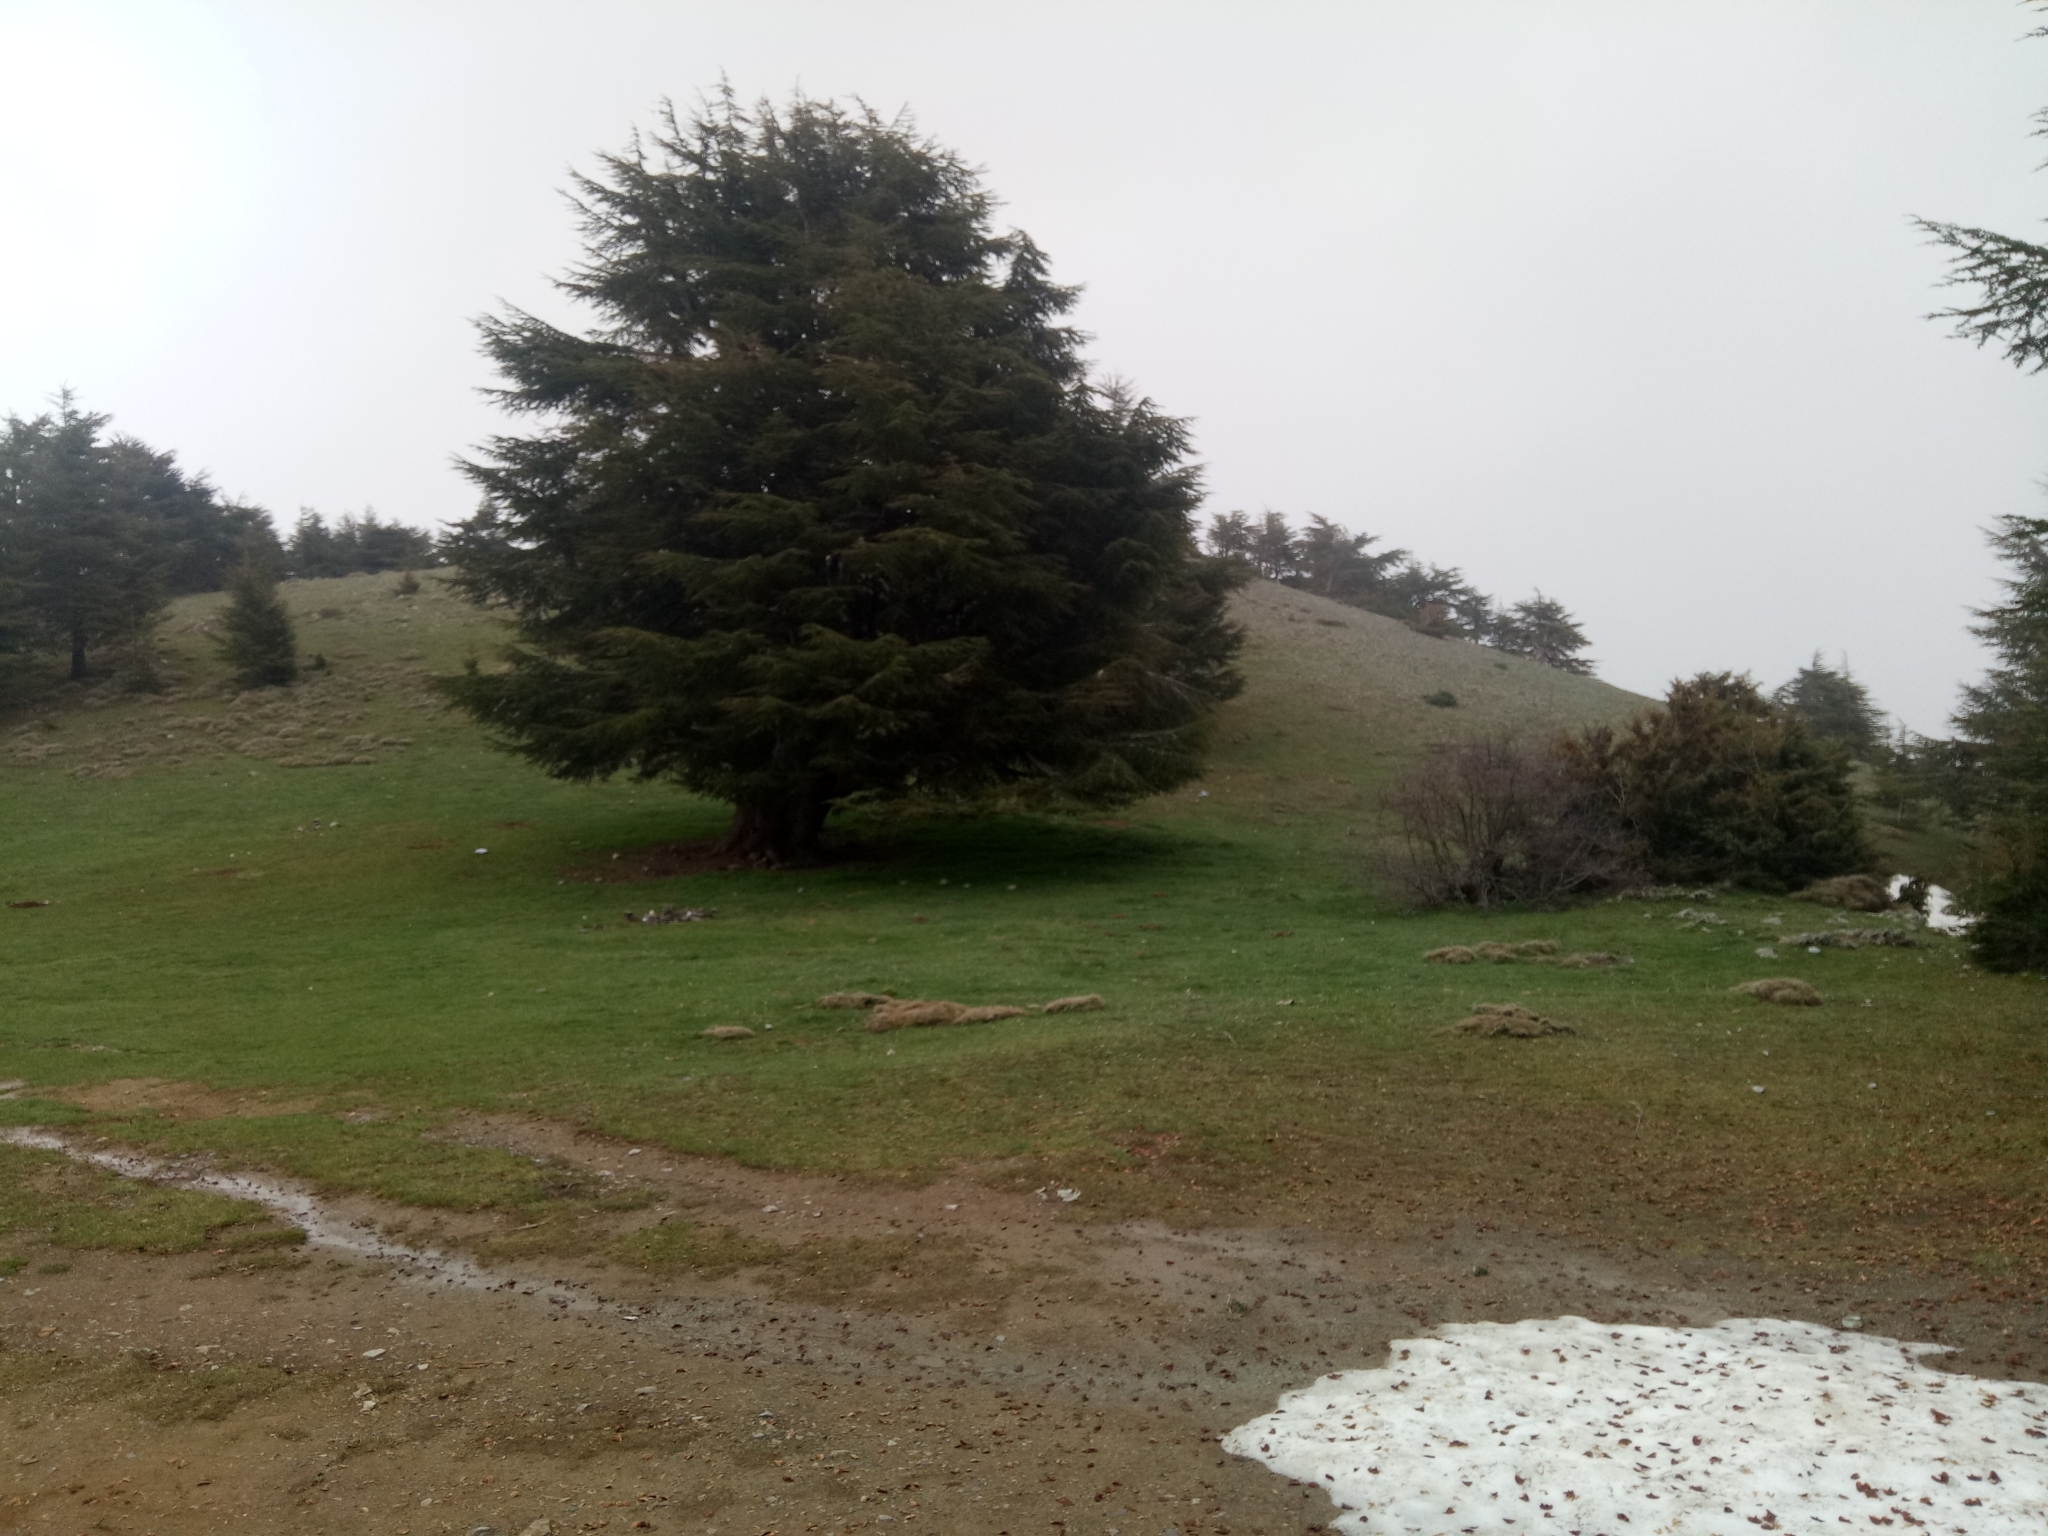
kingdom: Plantae
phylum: Tracheophyta
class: Pinopsida
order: Pinales
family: Pinaceae
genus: Cedrus
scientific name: Cedrus atlantica
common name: Atlas cedar
